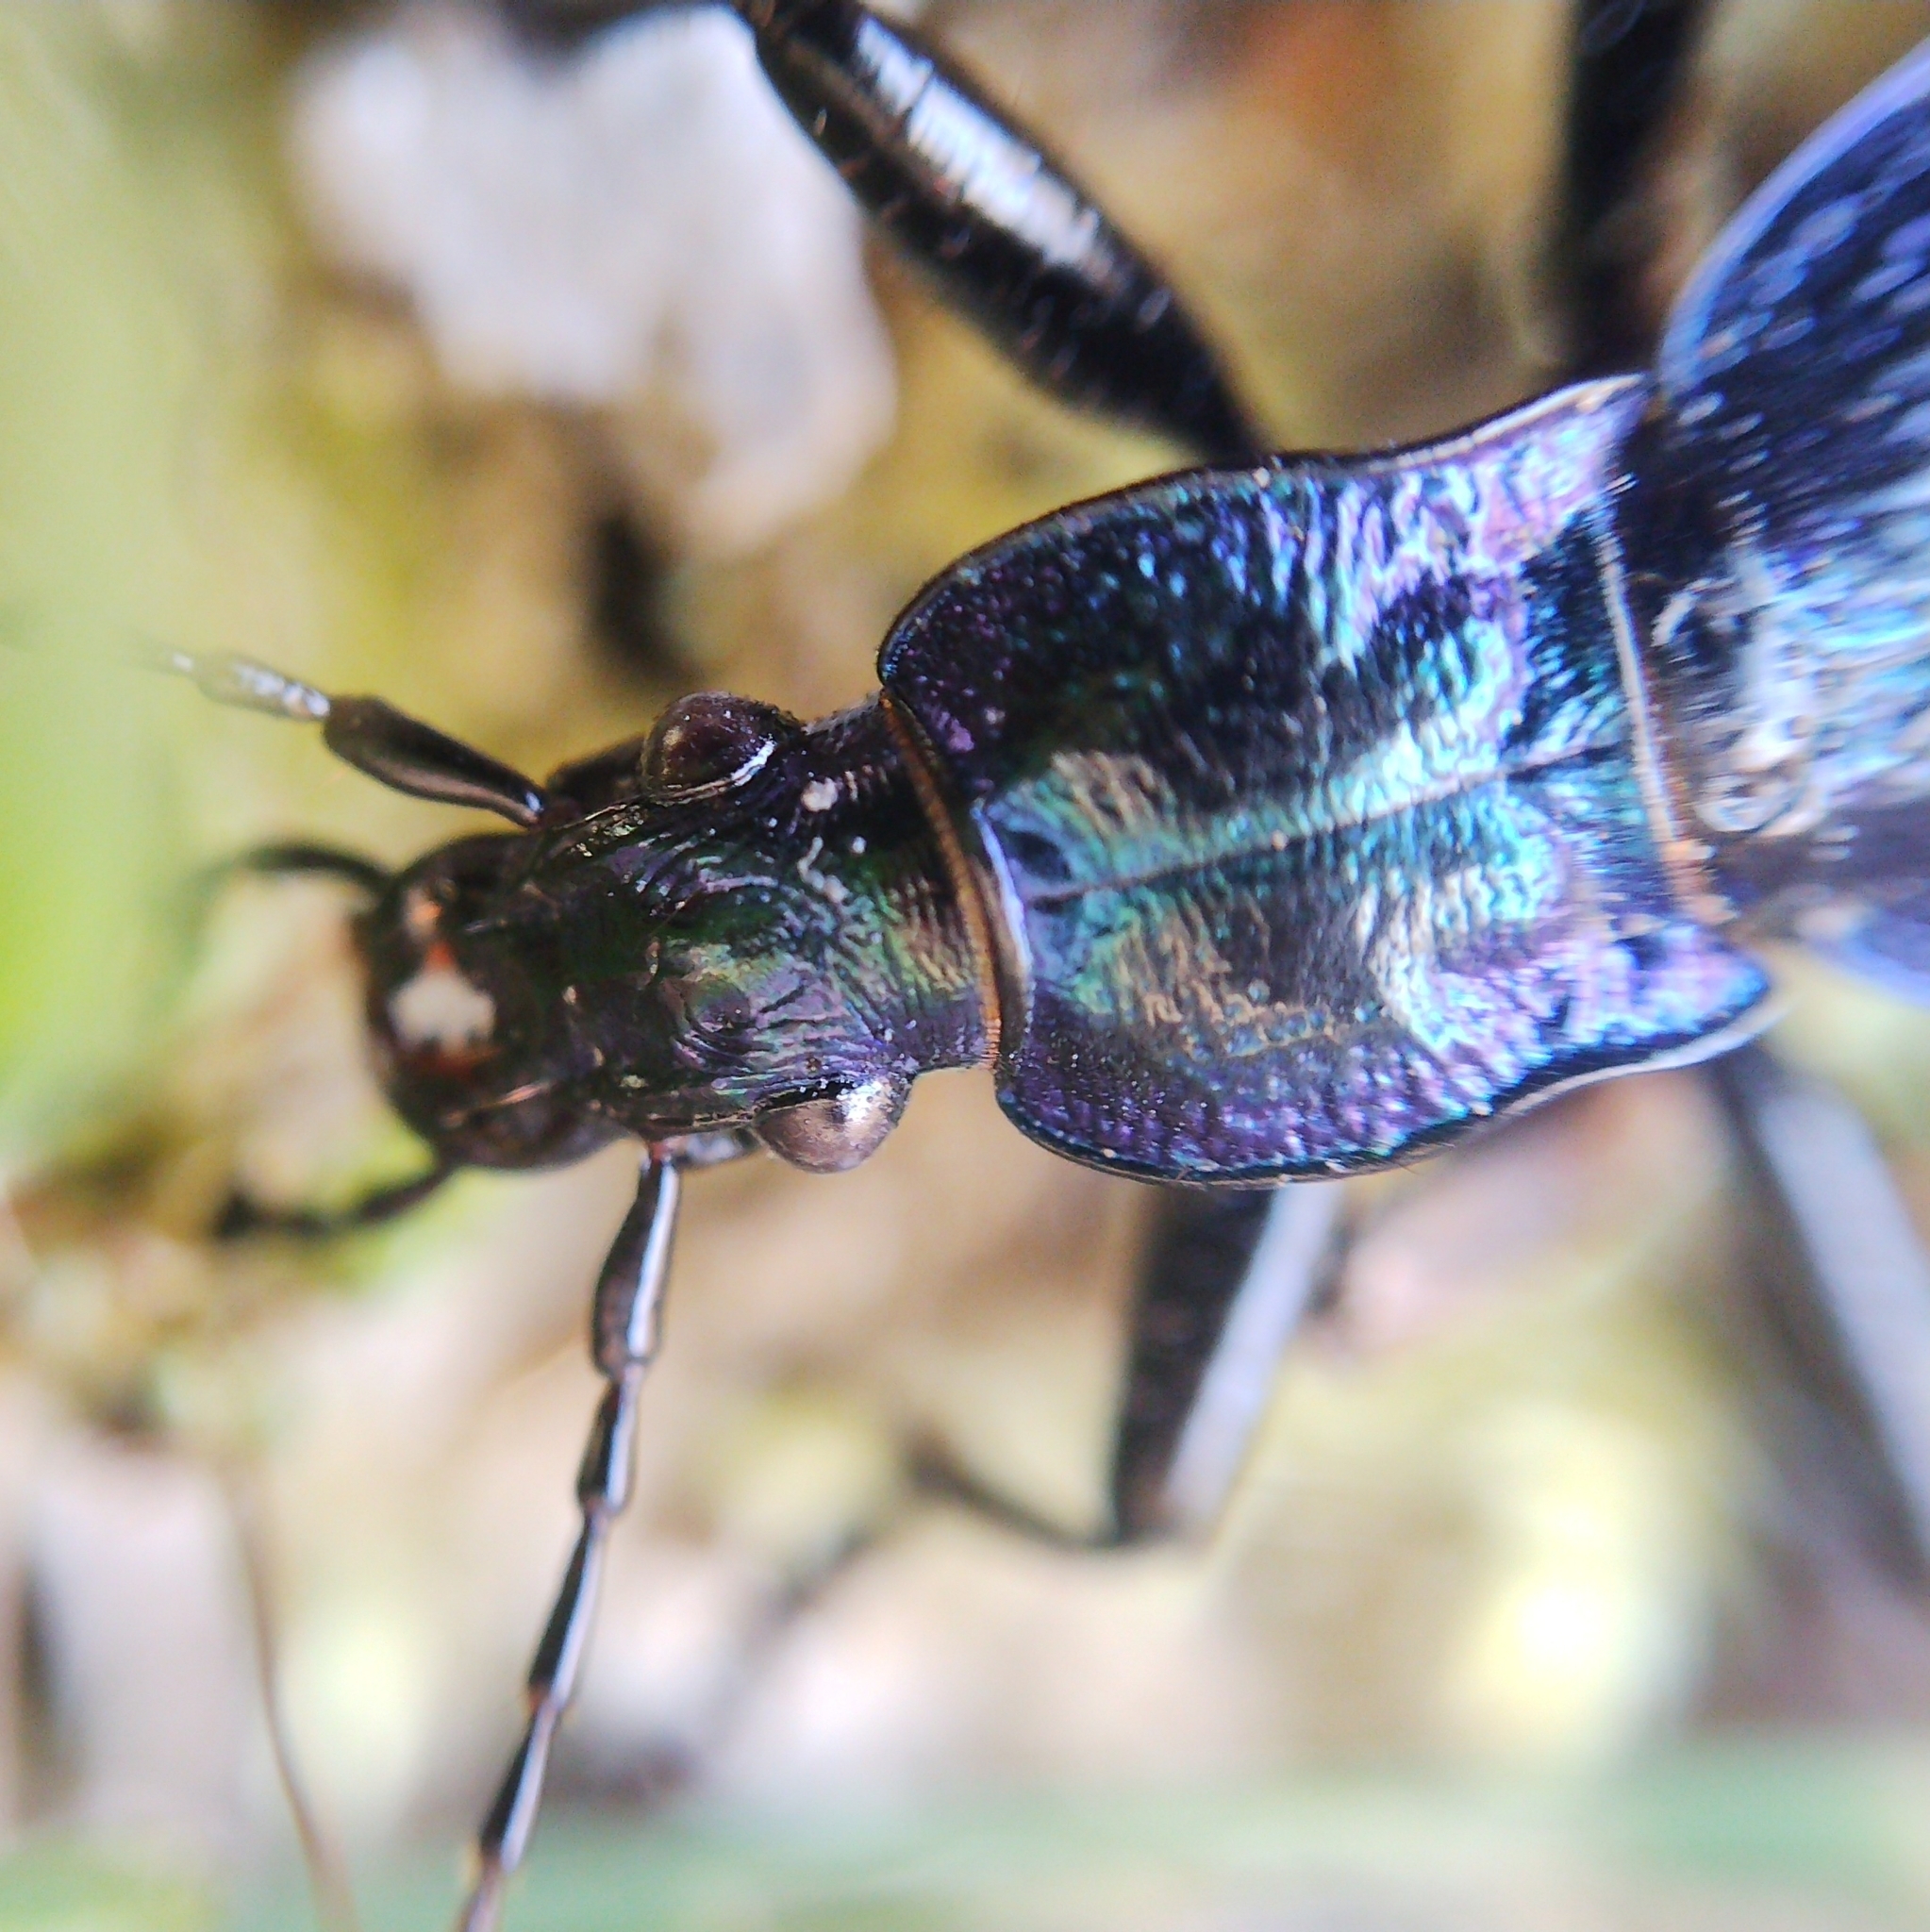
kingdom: Animalia
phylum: Arthropoda
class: Insecta
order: Coleoptera
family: Carabidae
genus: Carabus
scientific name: Carabus intricatus
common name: Blue ground beetle
